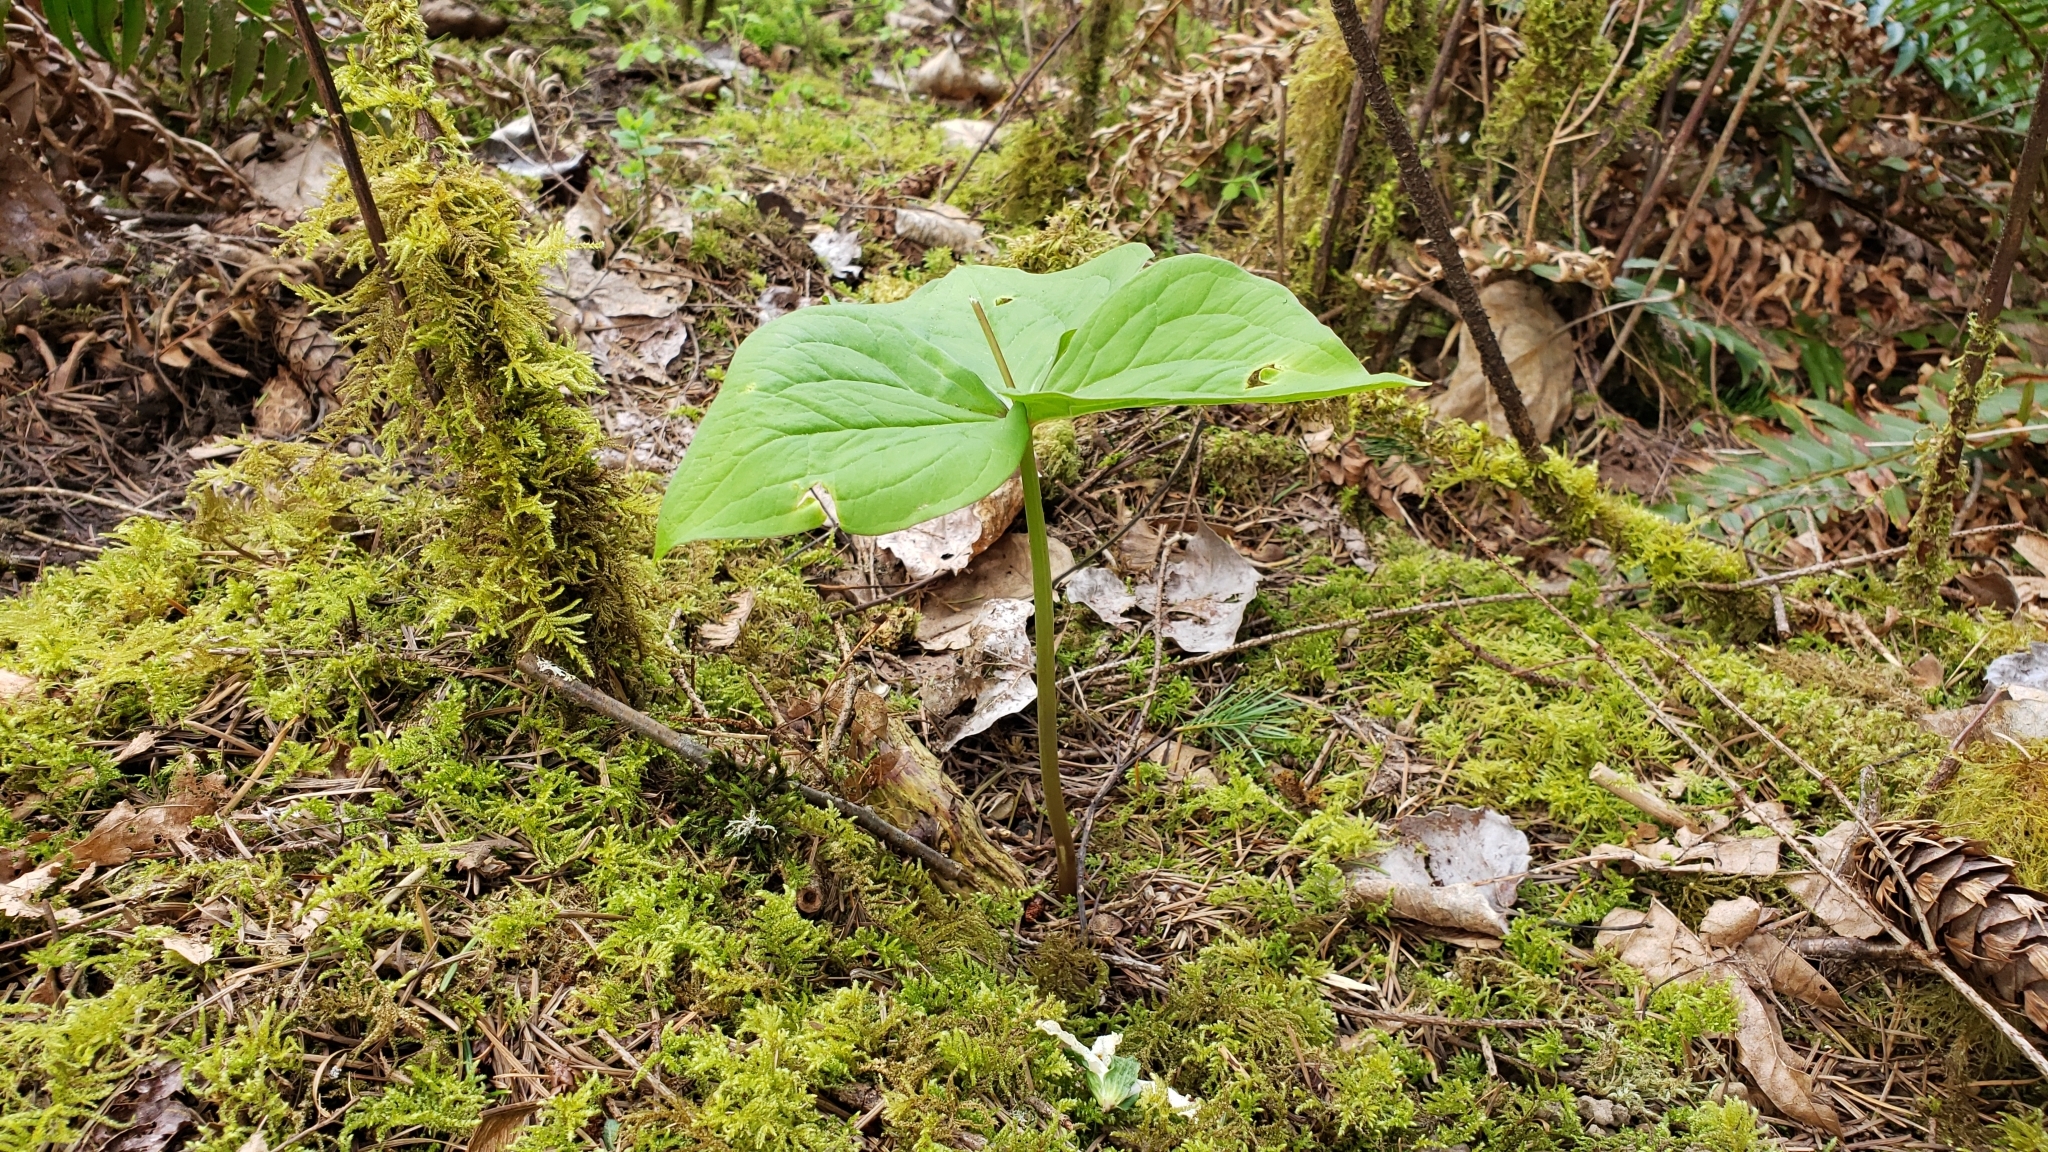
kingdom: Plantae
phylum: Tracheophyta
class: Liliopsida
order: Liliales
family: Melanthiaceae
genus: Trillium
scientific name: Trillium ovatum
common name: Pacific trillium
